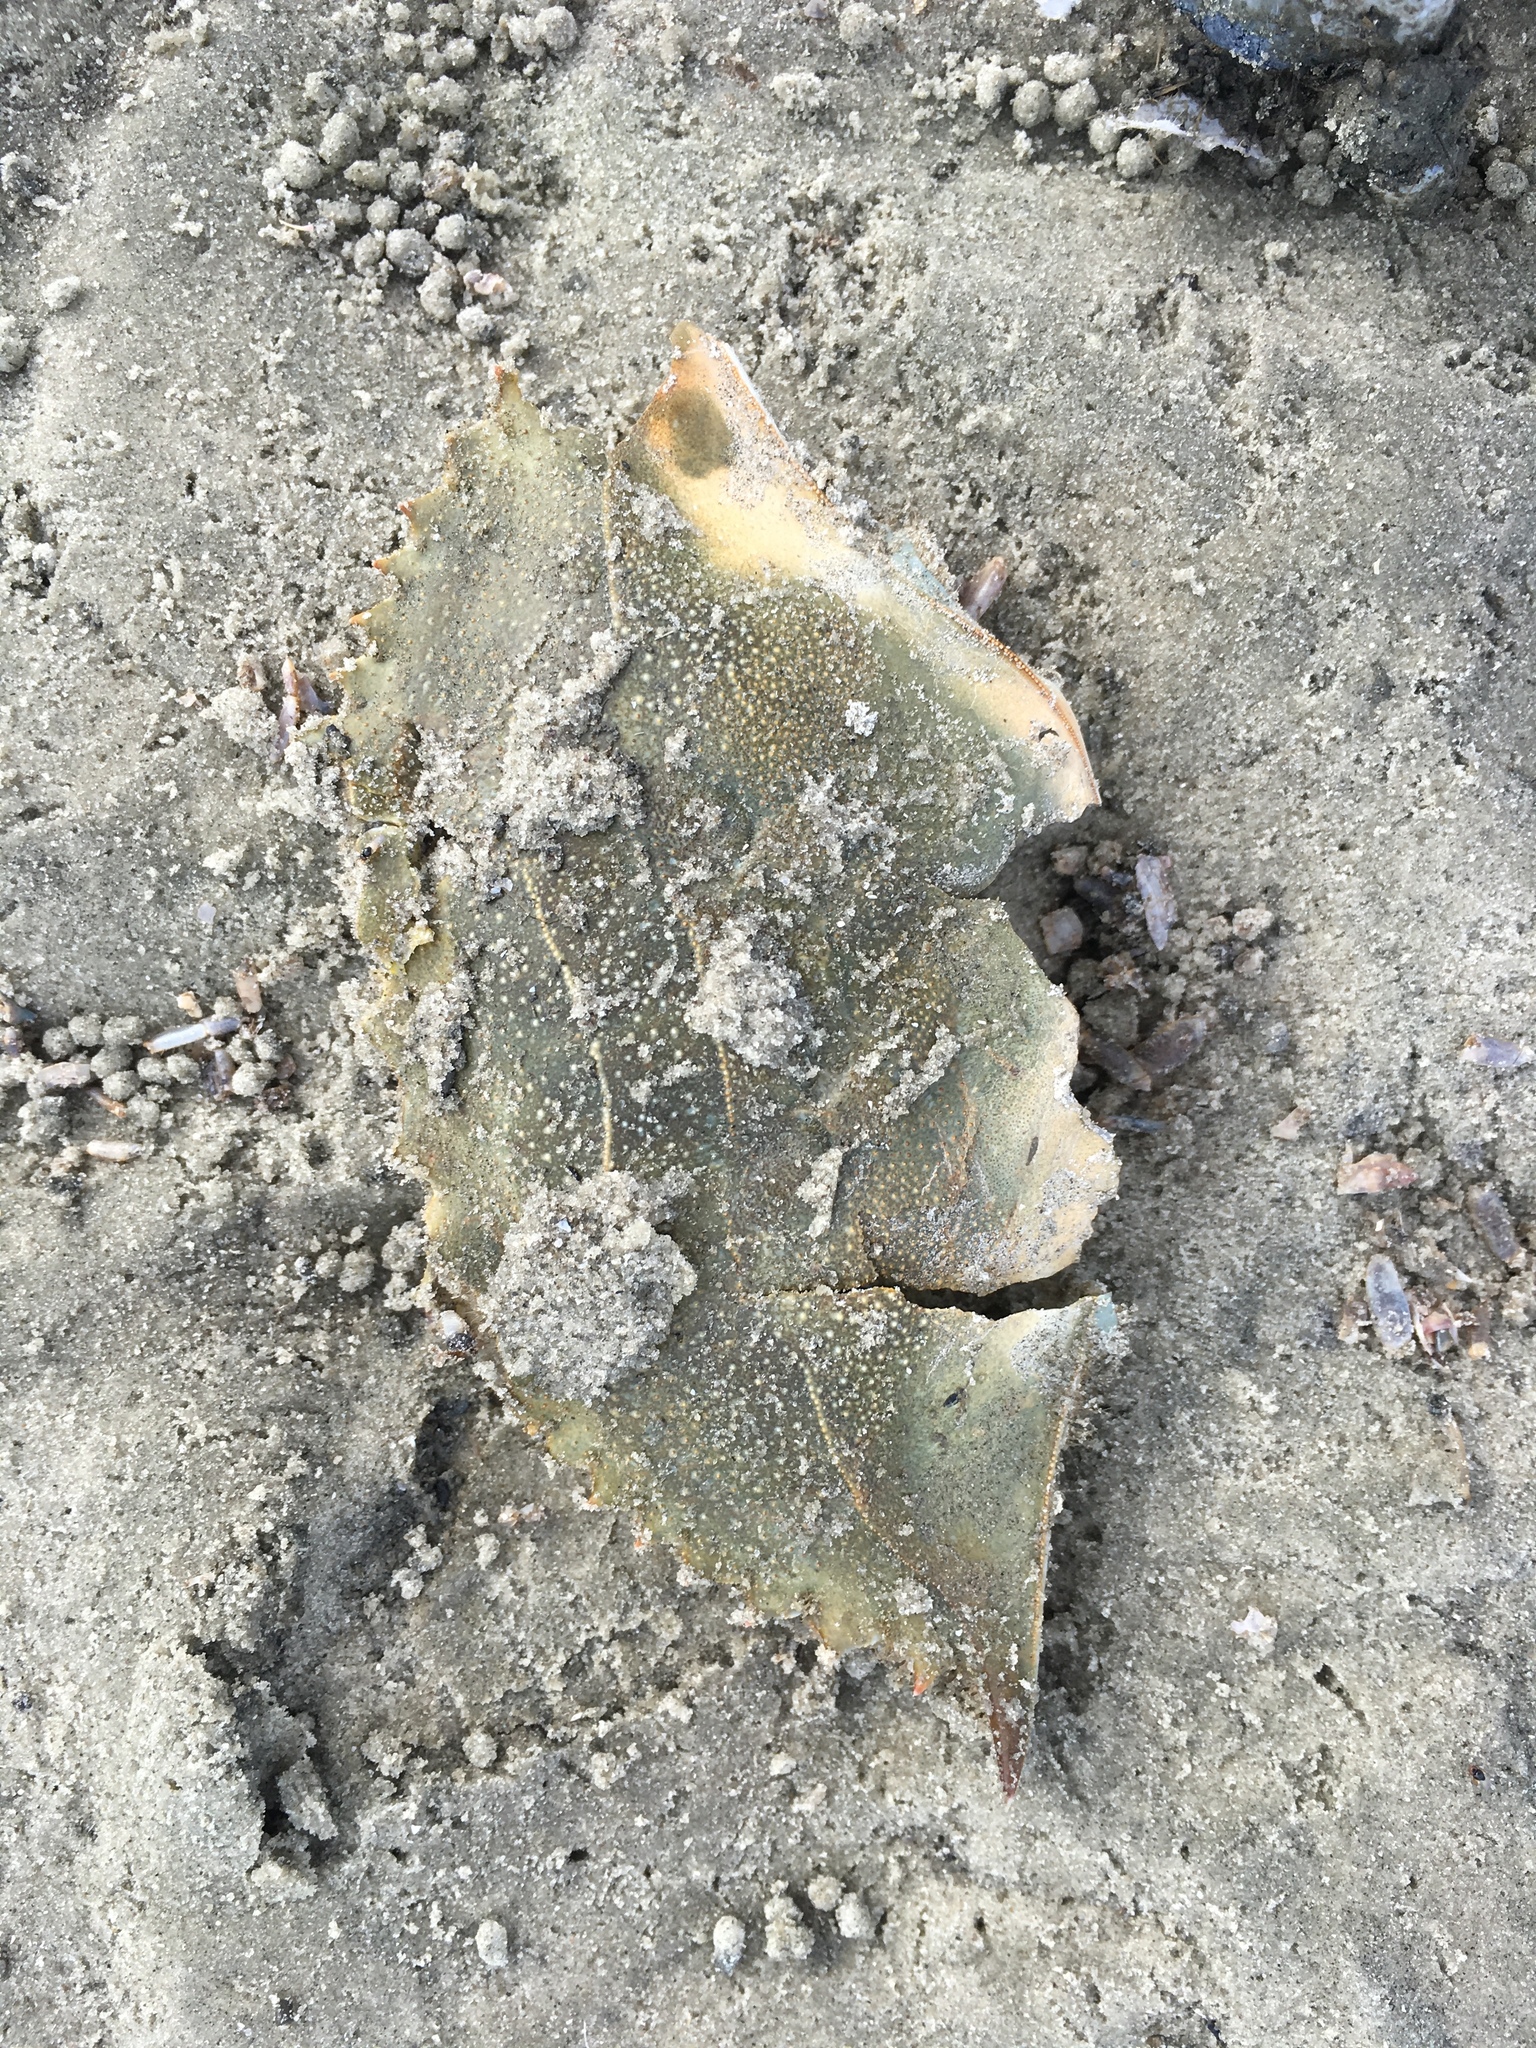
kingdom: Animalia
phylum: Arthropoda
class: Malacostraca
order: Decapoda
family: Portunidae
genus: Callinectes
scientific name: Callinectes sapidus
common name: Blue crab
